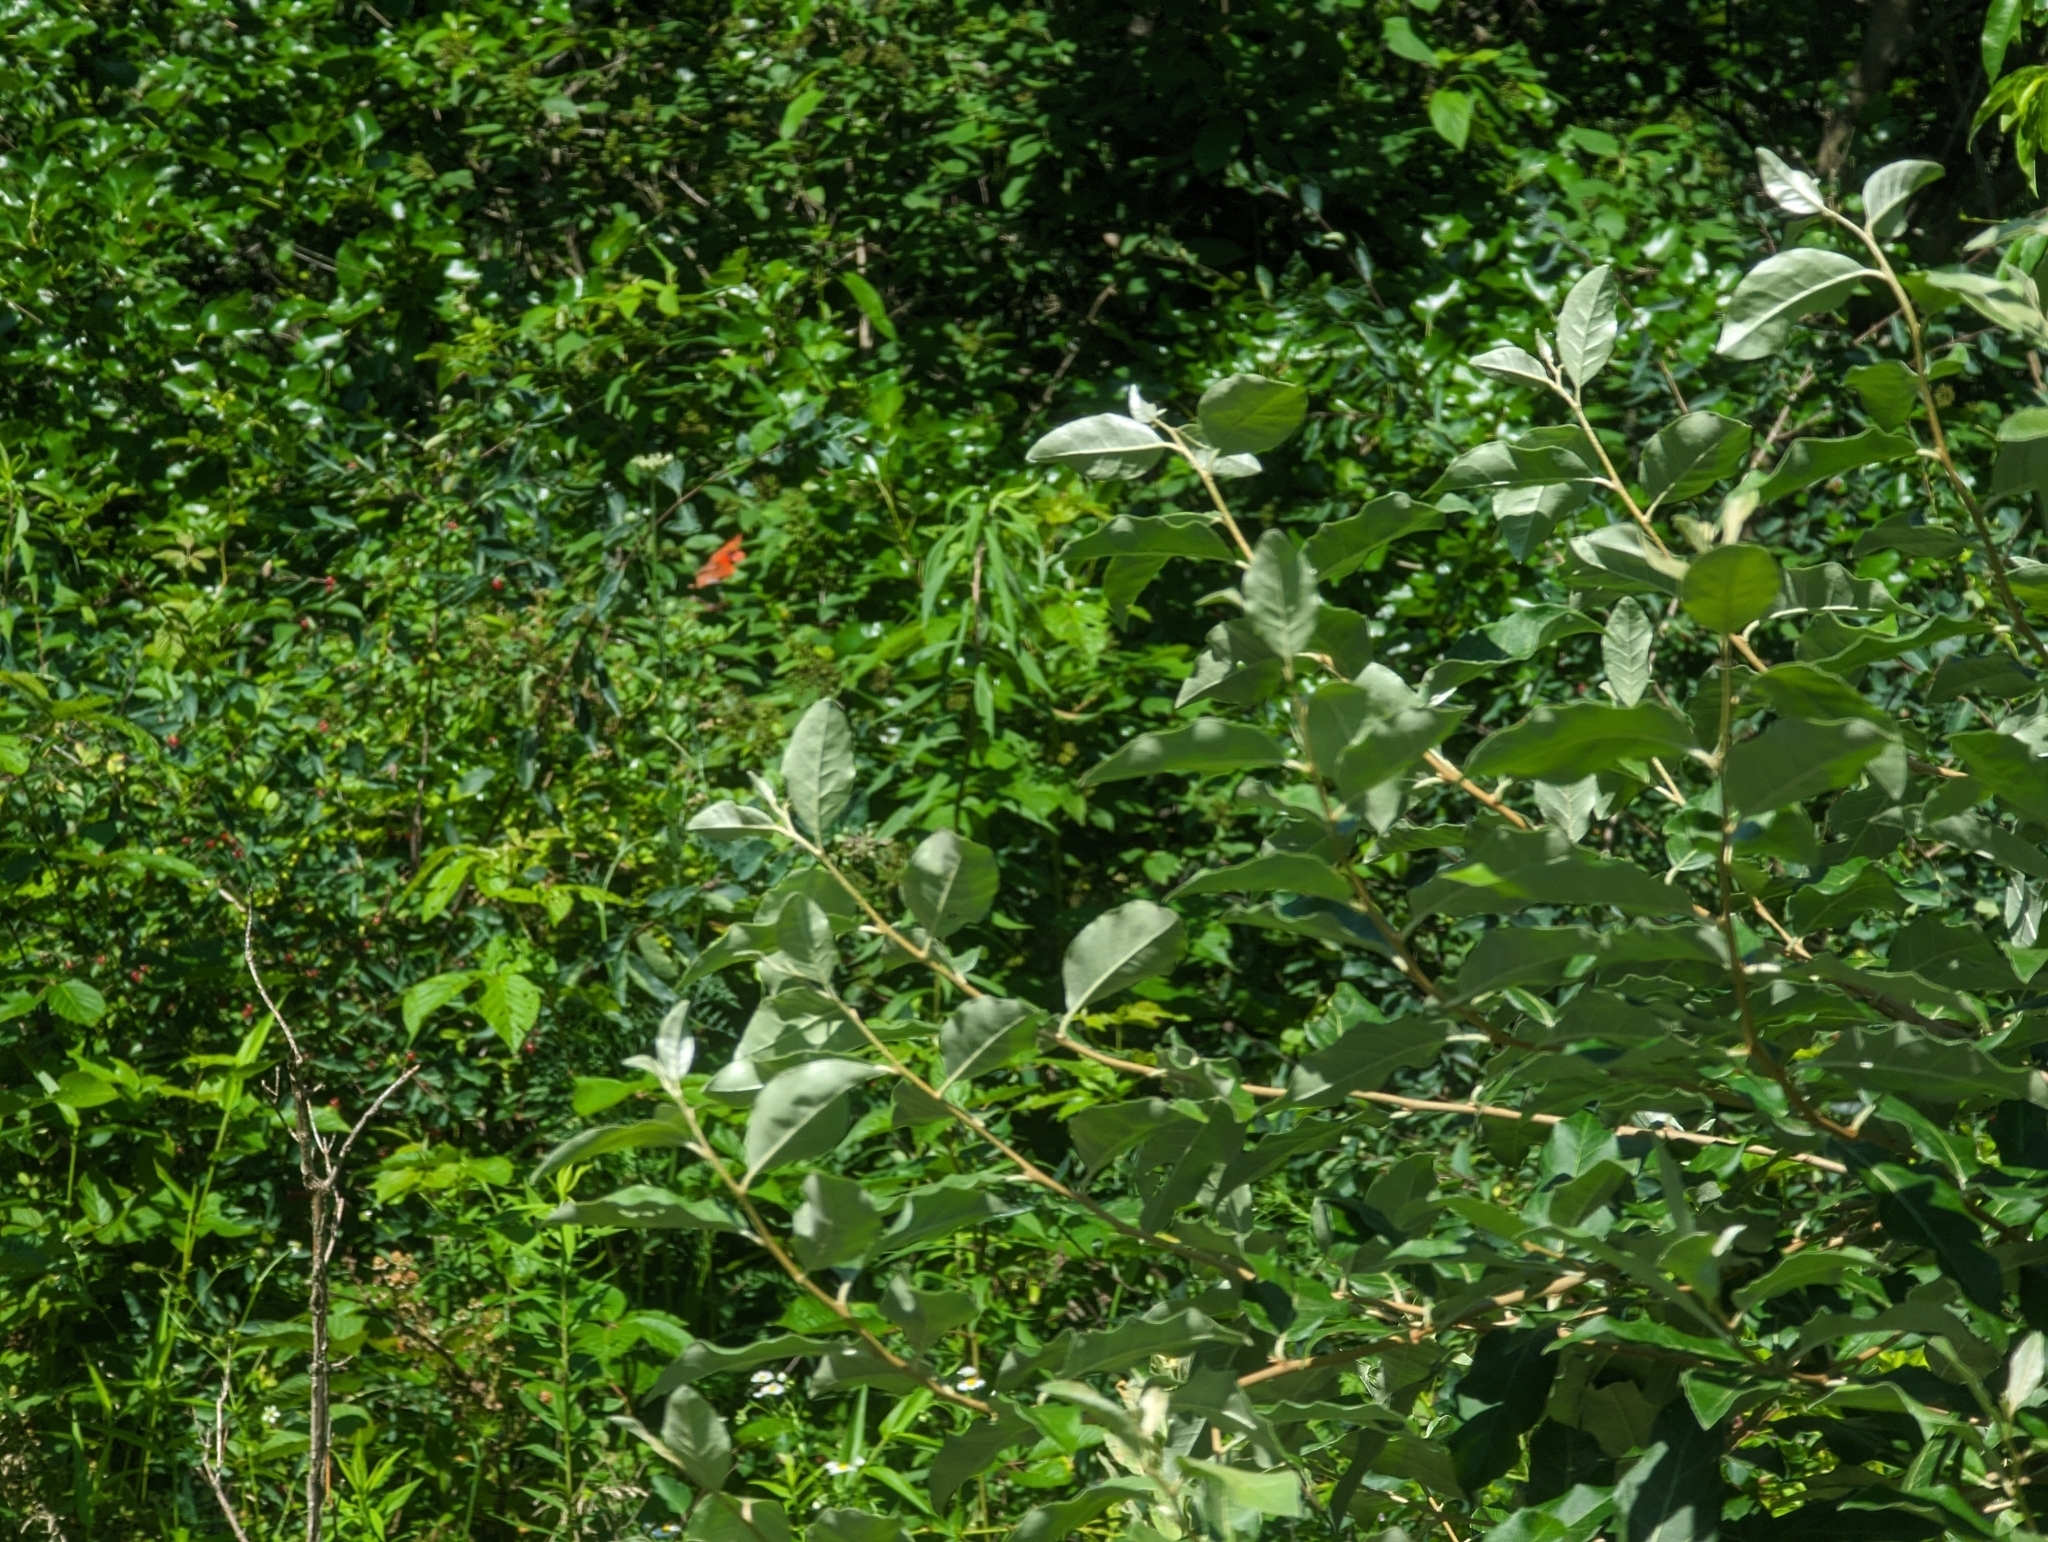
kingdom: Animalia
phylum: Chordata
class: Aves
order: Passeriformes
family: Cardinalidae
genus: Cardinalis
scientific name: Cardinalis cardinalis
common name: Northern cardinal
